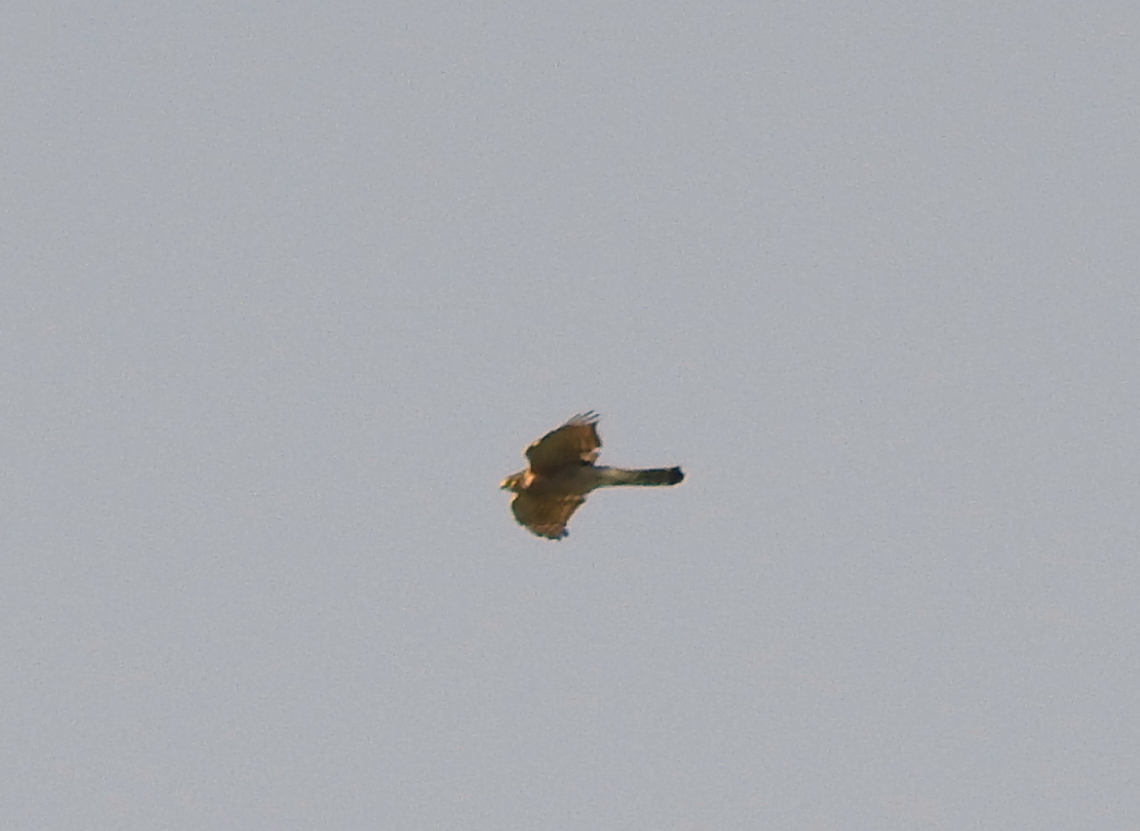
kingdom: Animalia
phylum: Chordata
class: Aves
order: Accipitriformes
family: Accipitridae
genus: Accipiter
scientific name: Accipiter nisus
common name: Eurasian sparrowhawk
